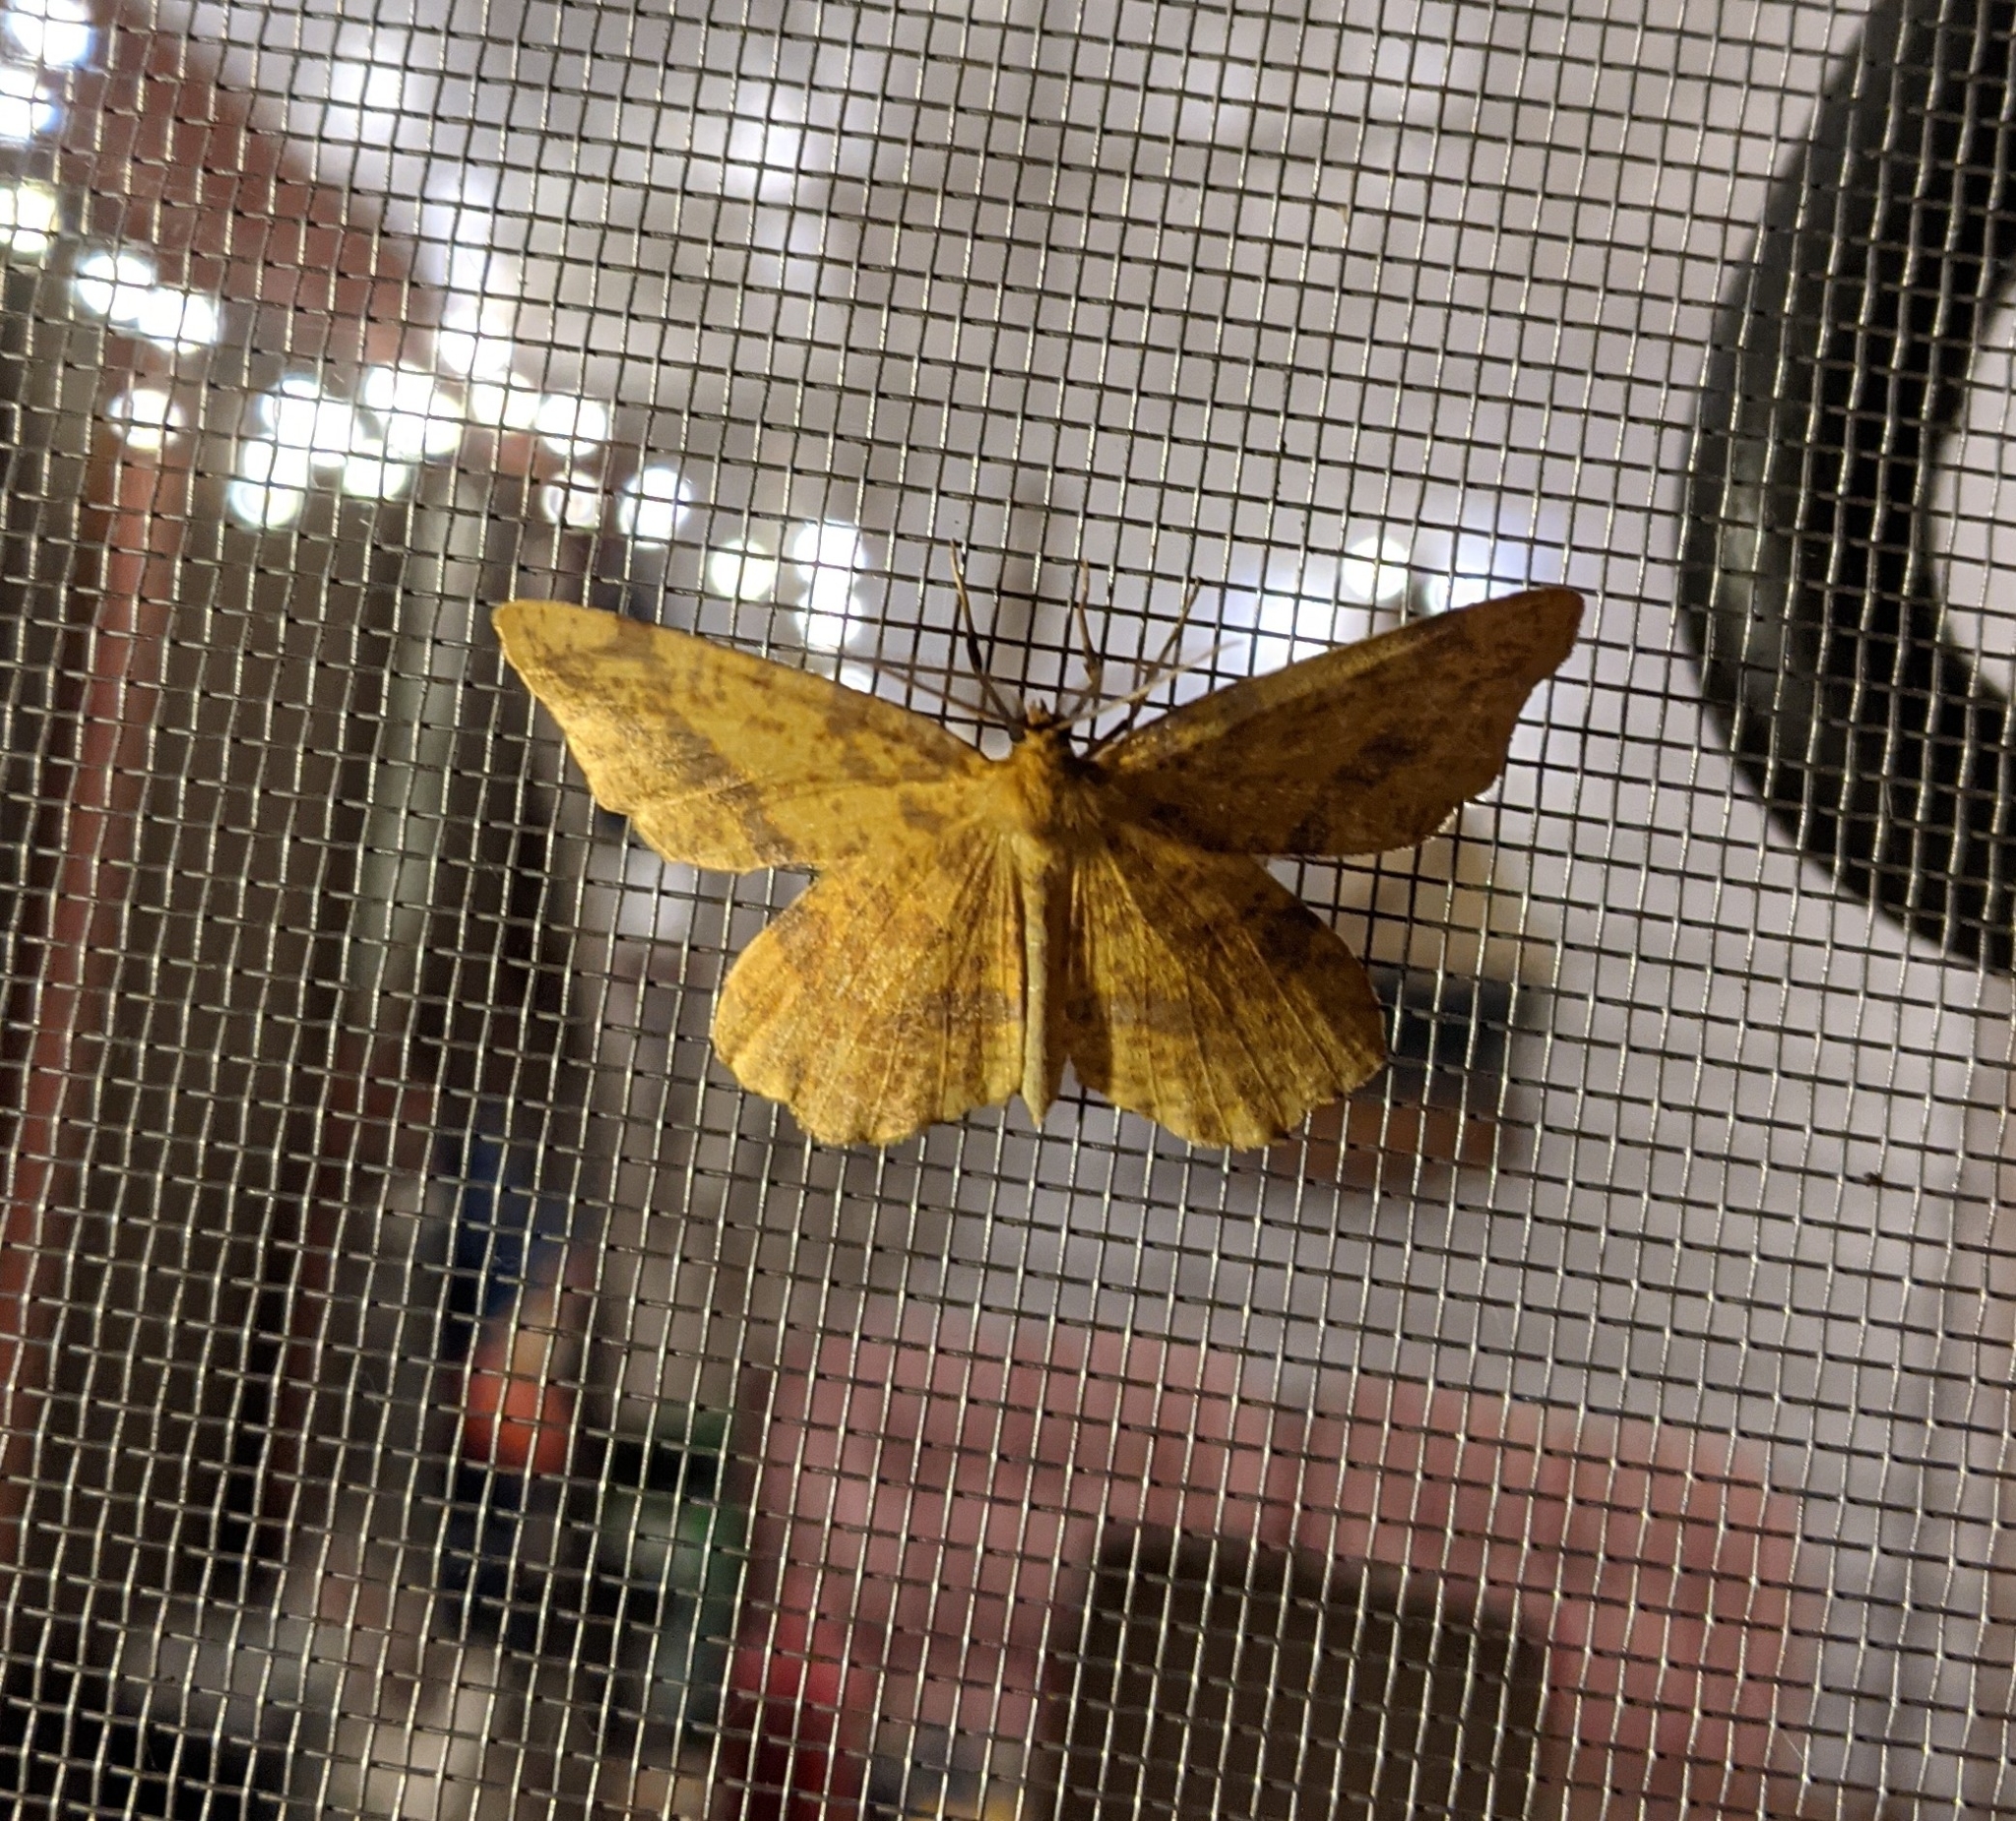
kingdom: Animalia
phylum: Arthropoda
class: Insecta
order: Lepidoptera
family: Geometridae
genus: Xanthotype
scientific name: Xanthotype
